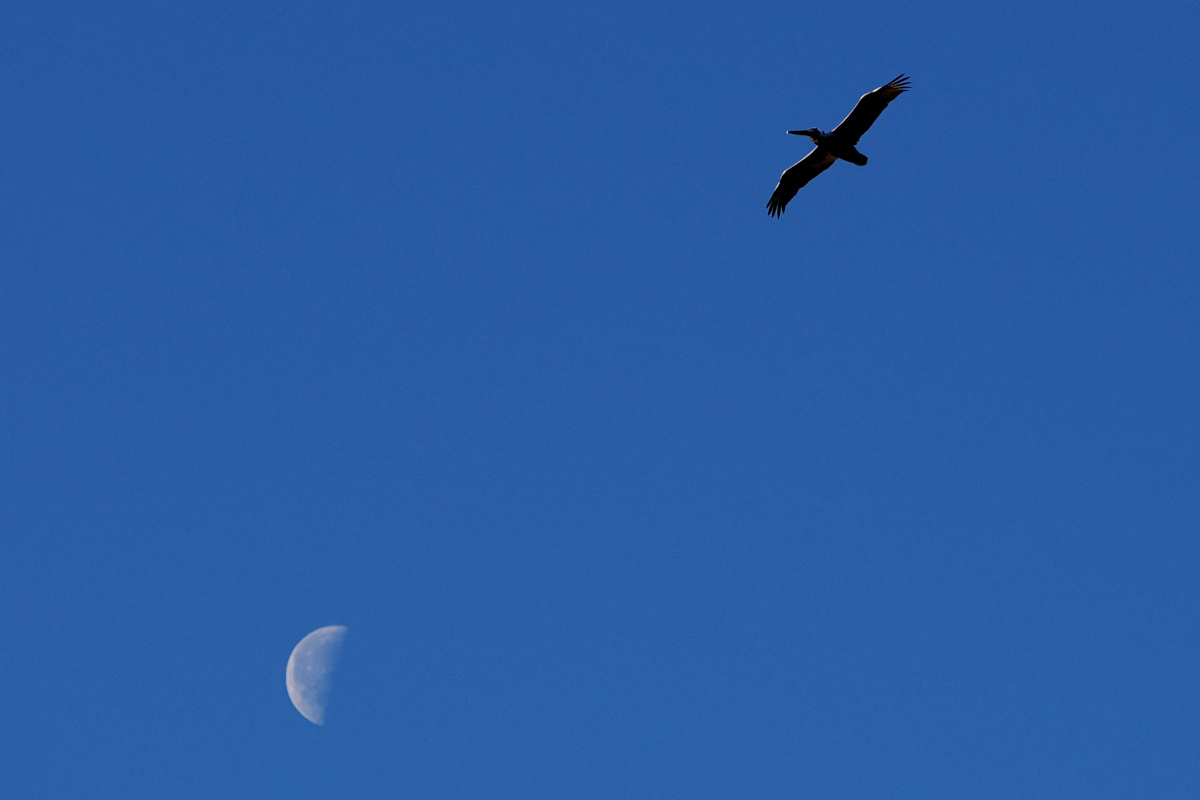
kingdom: Animalia
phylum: Chordata
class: Aves
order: Pelecaniformes
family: Pelecanidae
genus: Pelecanus
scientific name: Pelecanus occidentalis
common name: Brown pelican
